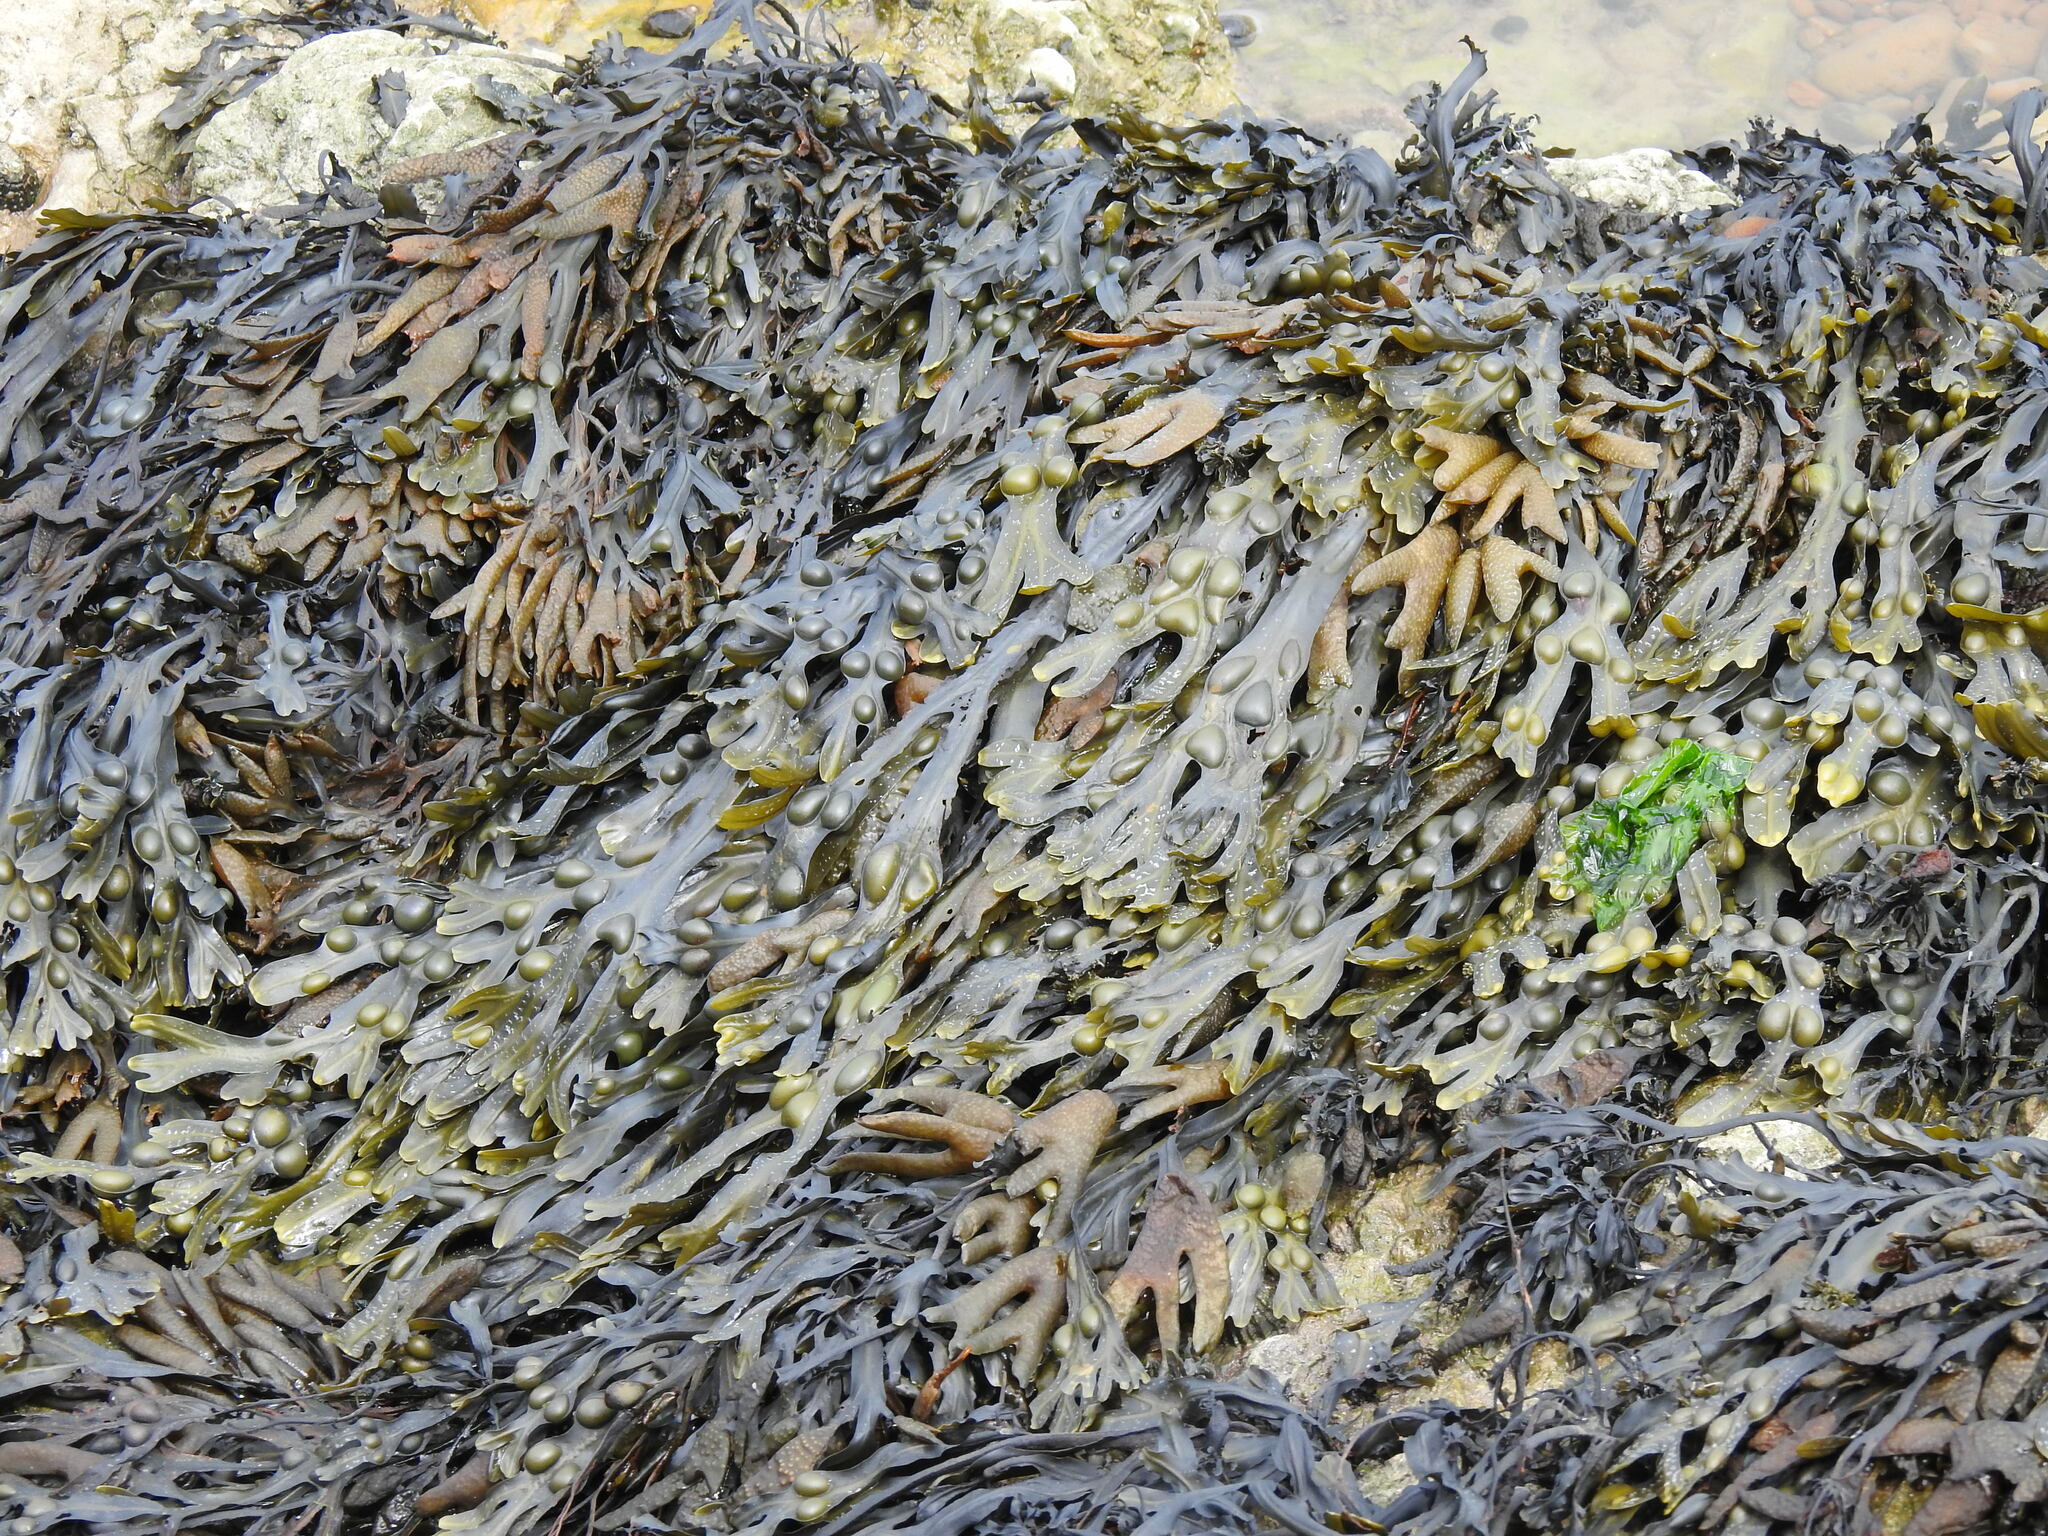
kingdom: Chromista
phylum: Ochrophyta
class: Phaeophyceae
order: Fucales
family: Fucaceae
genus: Fucus
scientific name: Fucus vesiculosus
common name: Bladder wrack
